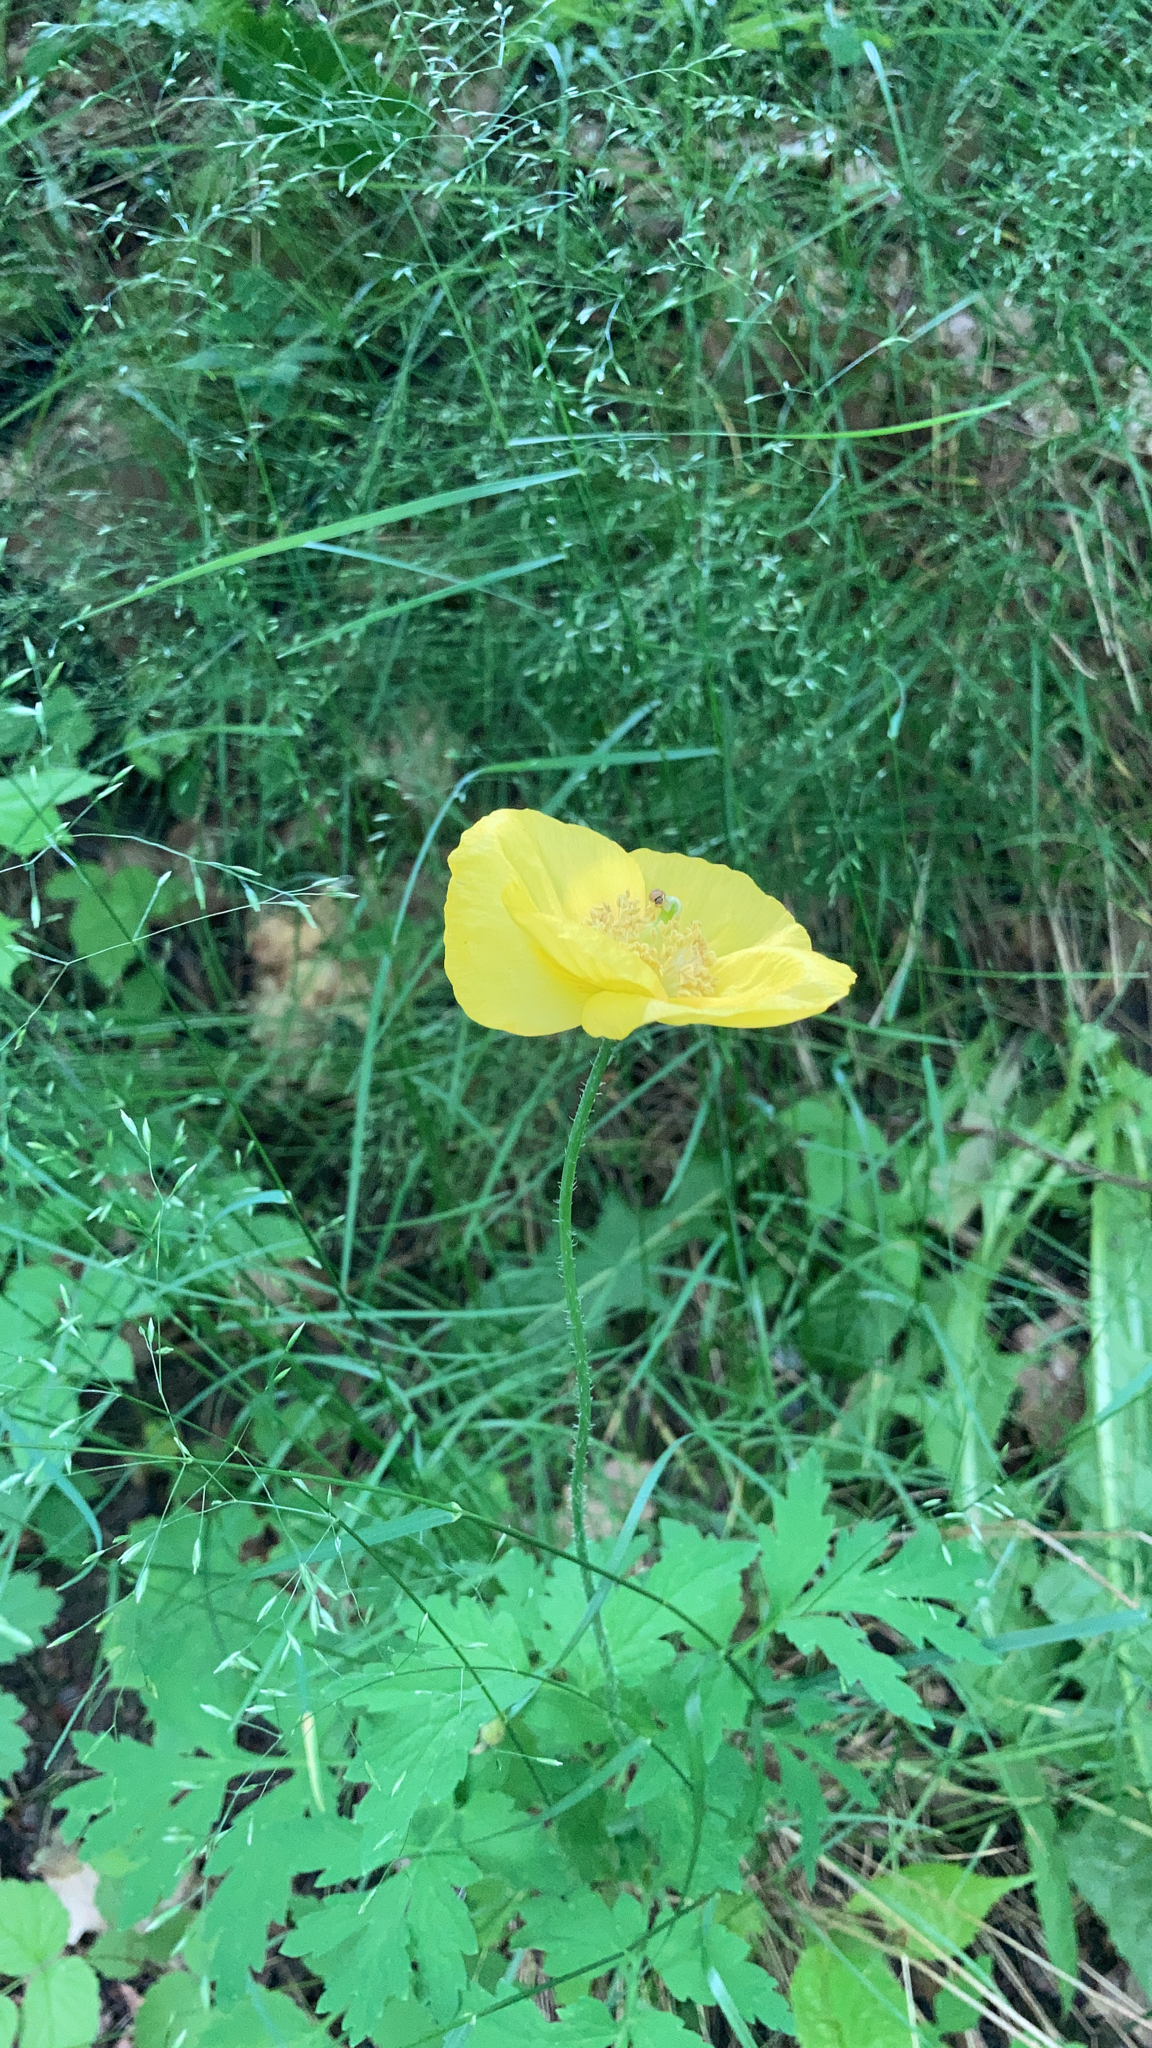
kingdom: Plantae
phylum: Tracheophyta
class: Magnoliopsida
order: Ranunculales
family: Papaveraceae
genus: Papaver
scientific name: Papaver cambricum
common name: Poppy
